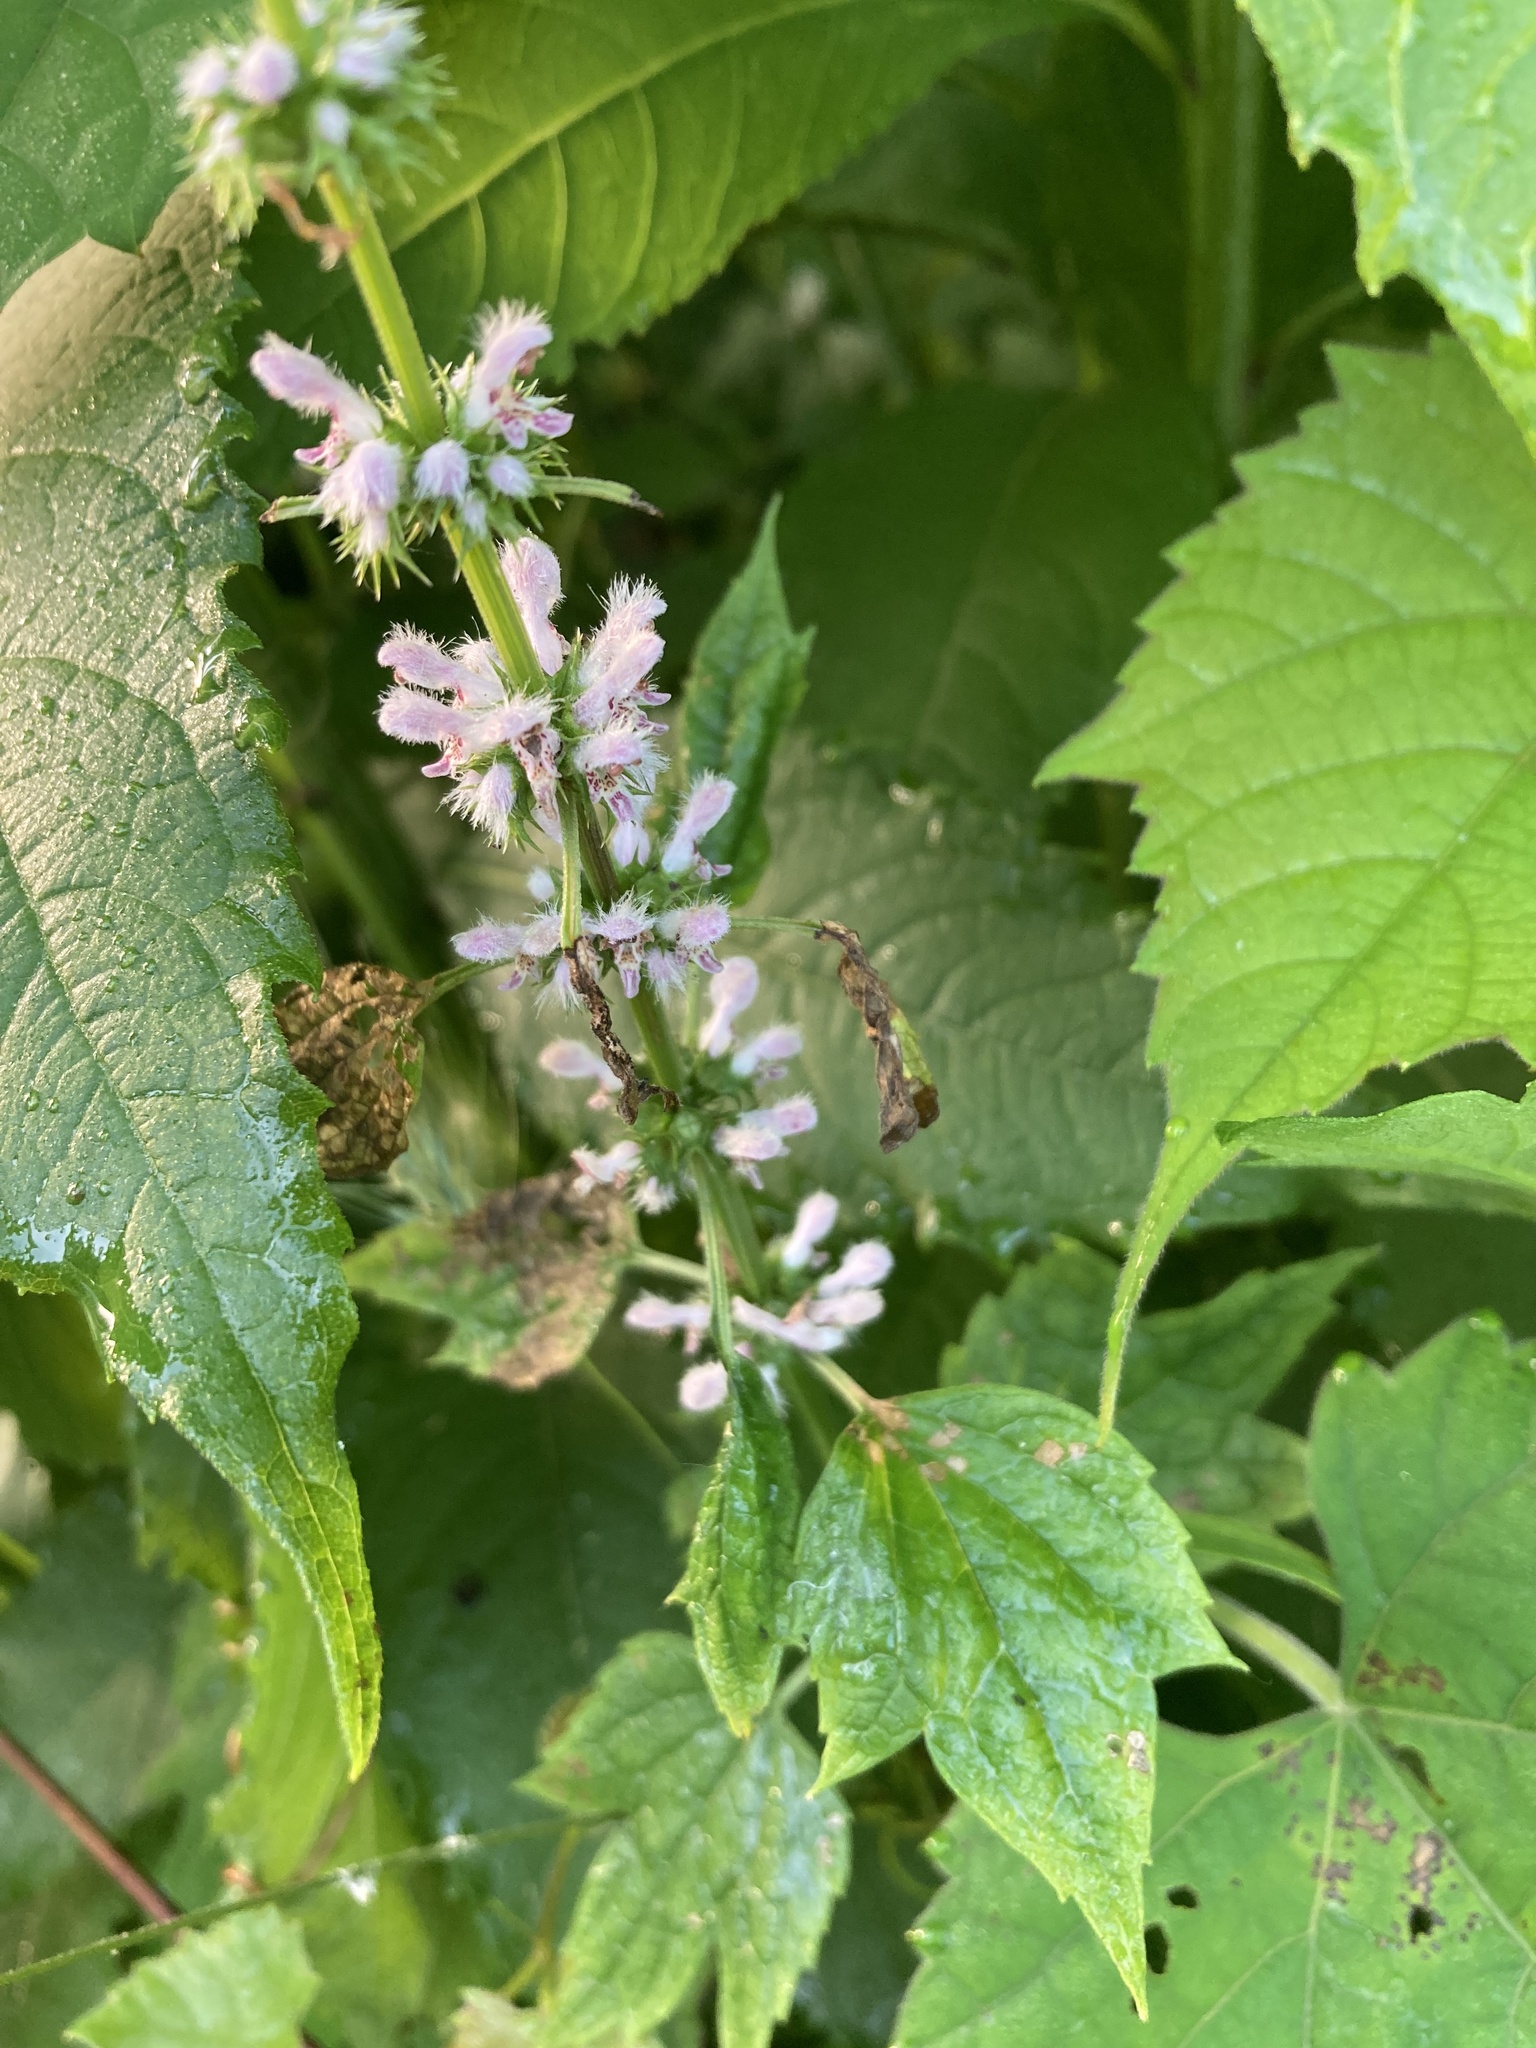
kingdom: Plantae
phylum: Tracheophyta
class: Magnoliopsida
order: Lamiales
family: Lamiaceae
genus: Leonurus
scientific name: Leonurus cardiaca
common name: Motherwort
